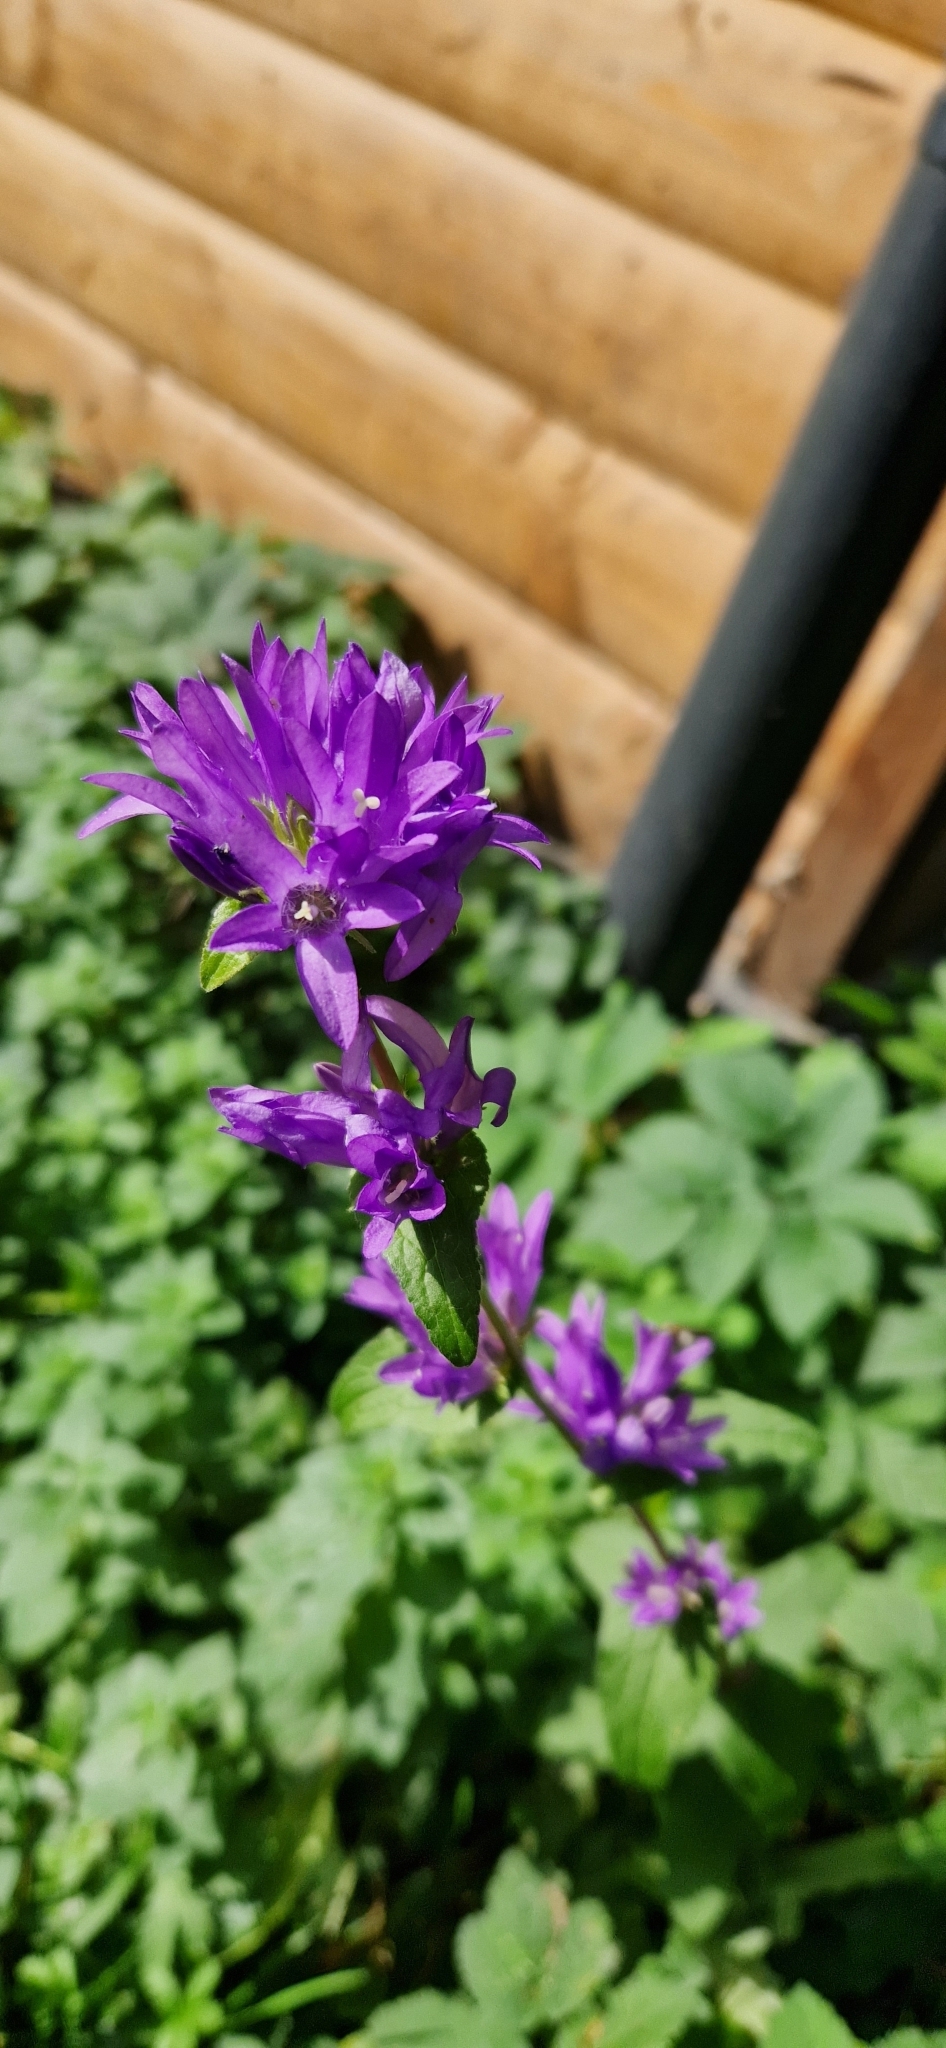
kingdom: Plantae
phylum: Tracheophyta
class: Magnoliopsida
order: Asterales
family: Campanulaceae
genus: Campanula
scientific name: Campanula glomerata
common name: Clustered bellflower
